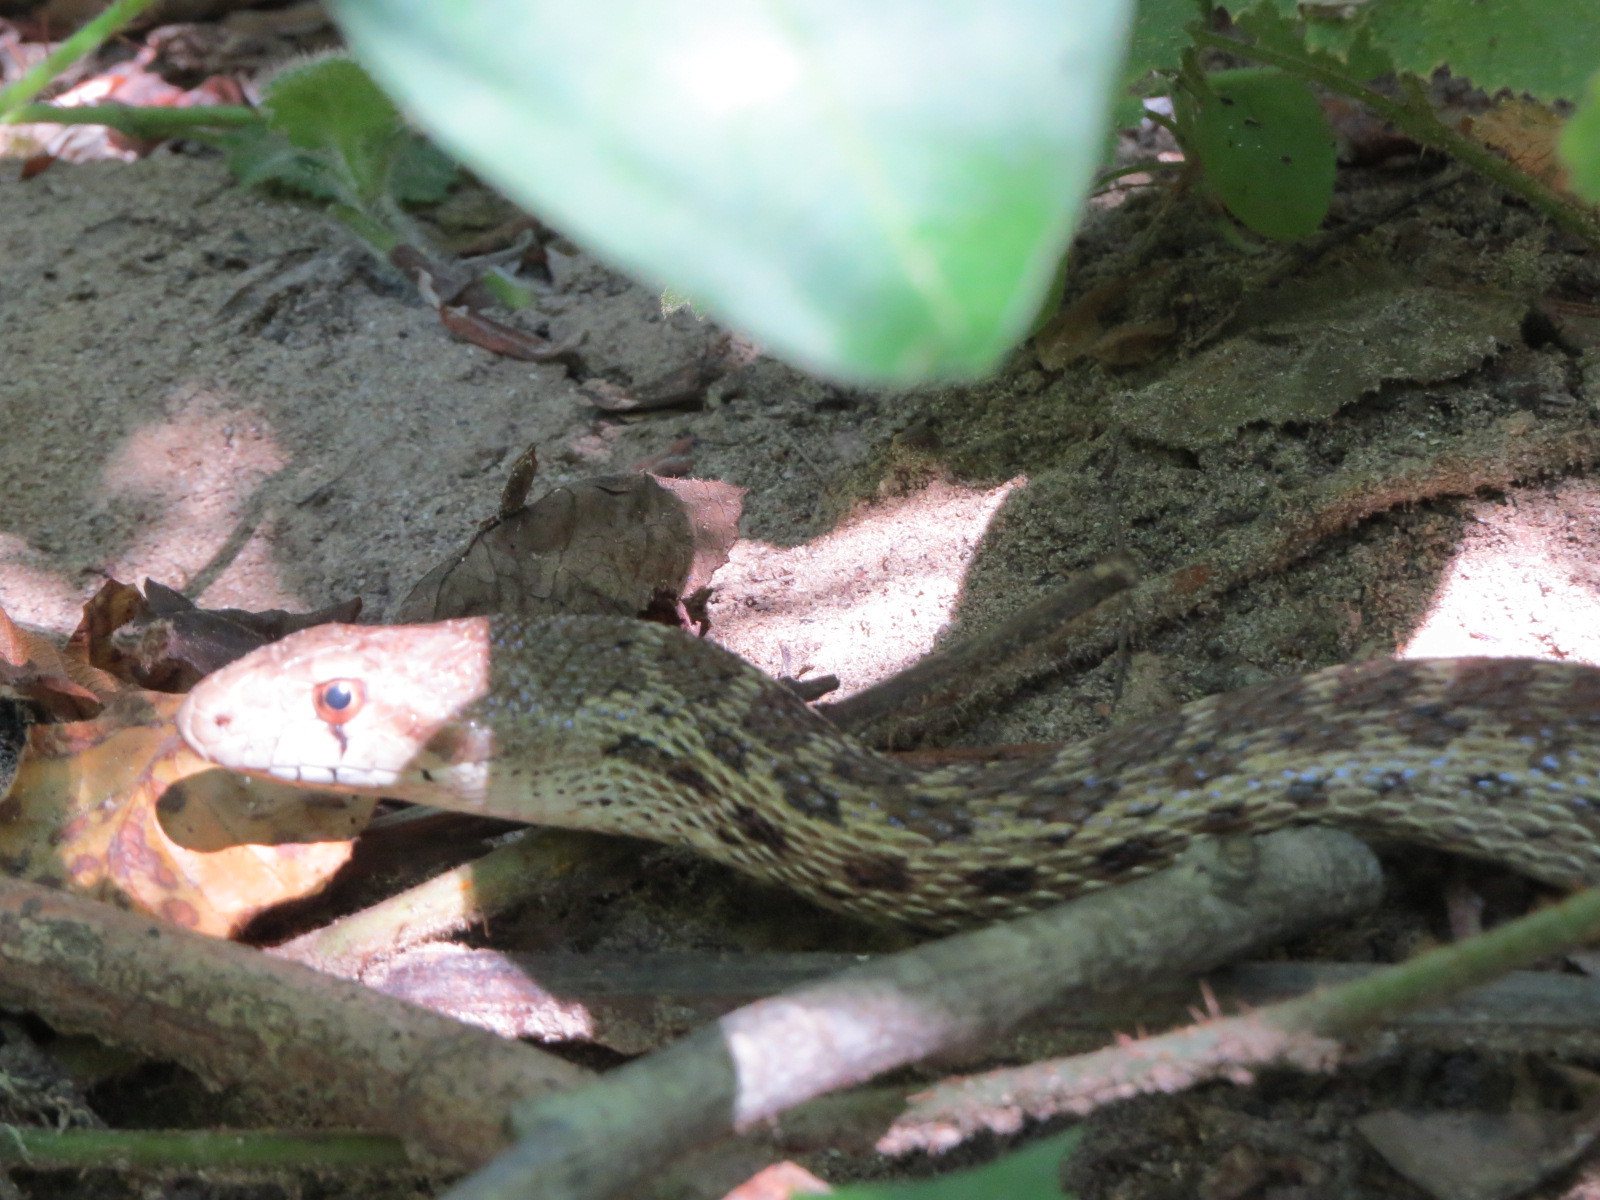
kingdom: Animalia
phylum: Chordata
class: Squamata
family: Colubridae
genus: Pituophis
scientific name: Pituophis catenifer
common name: Gopher snake
